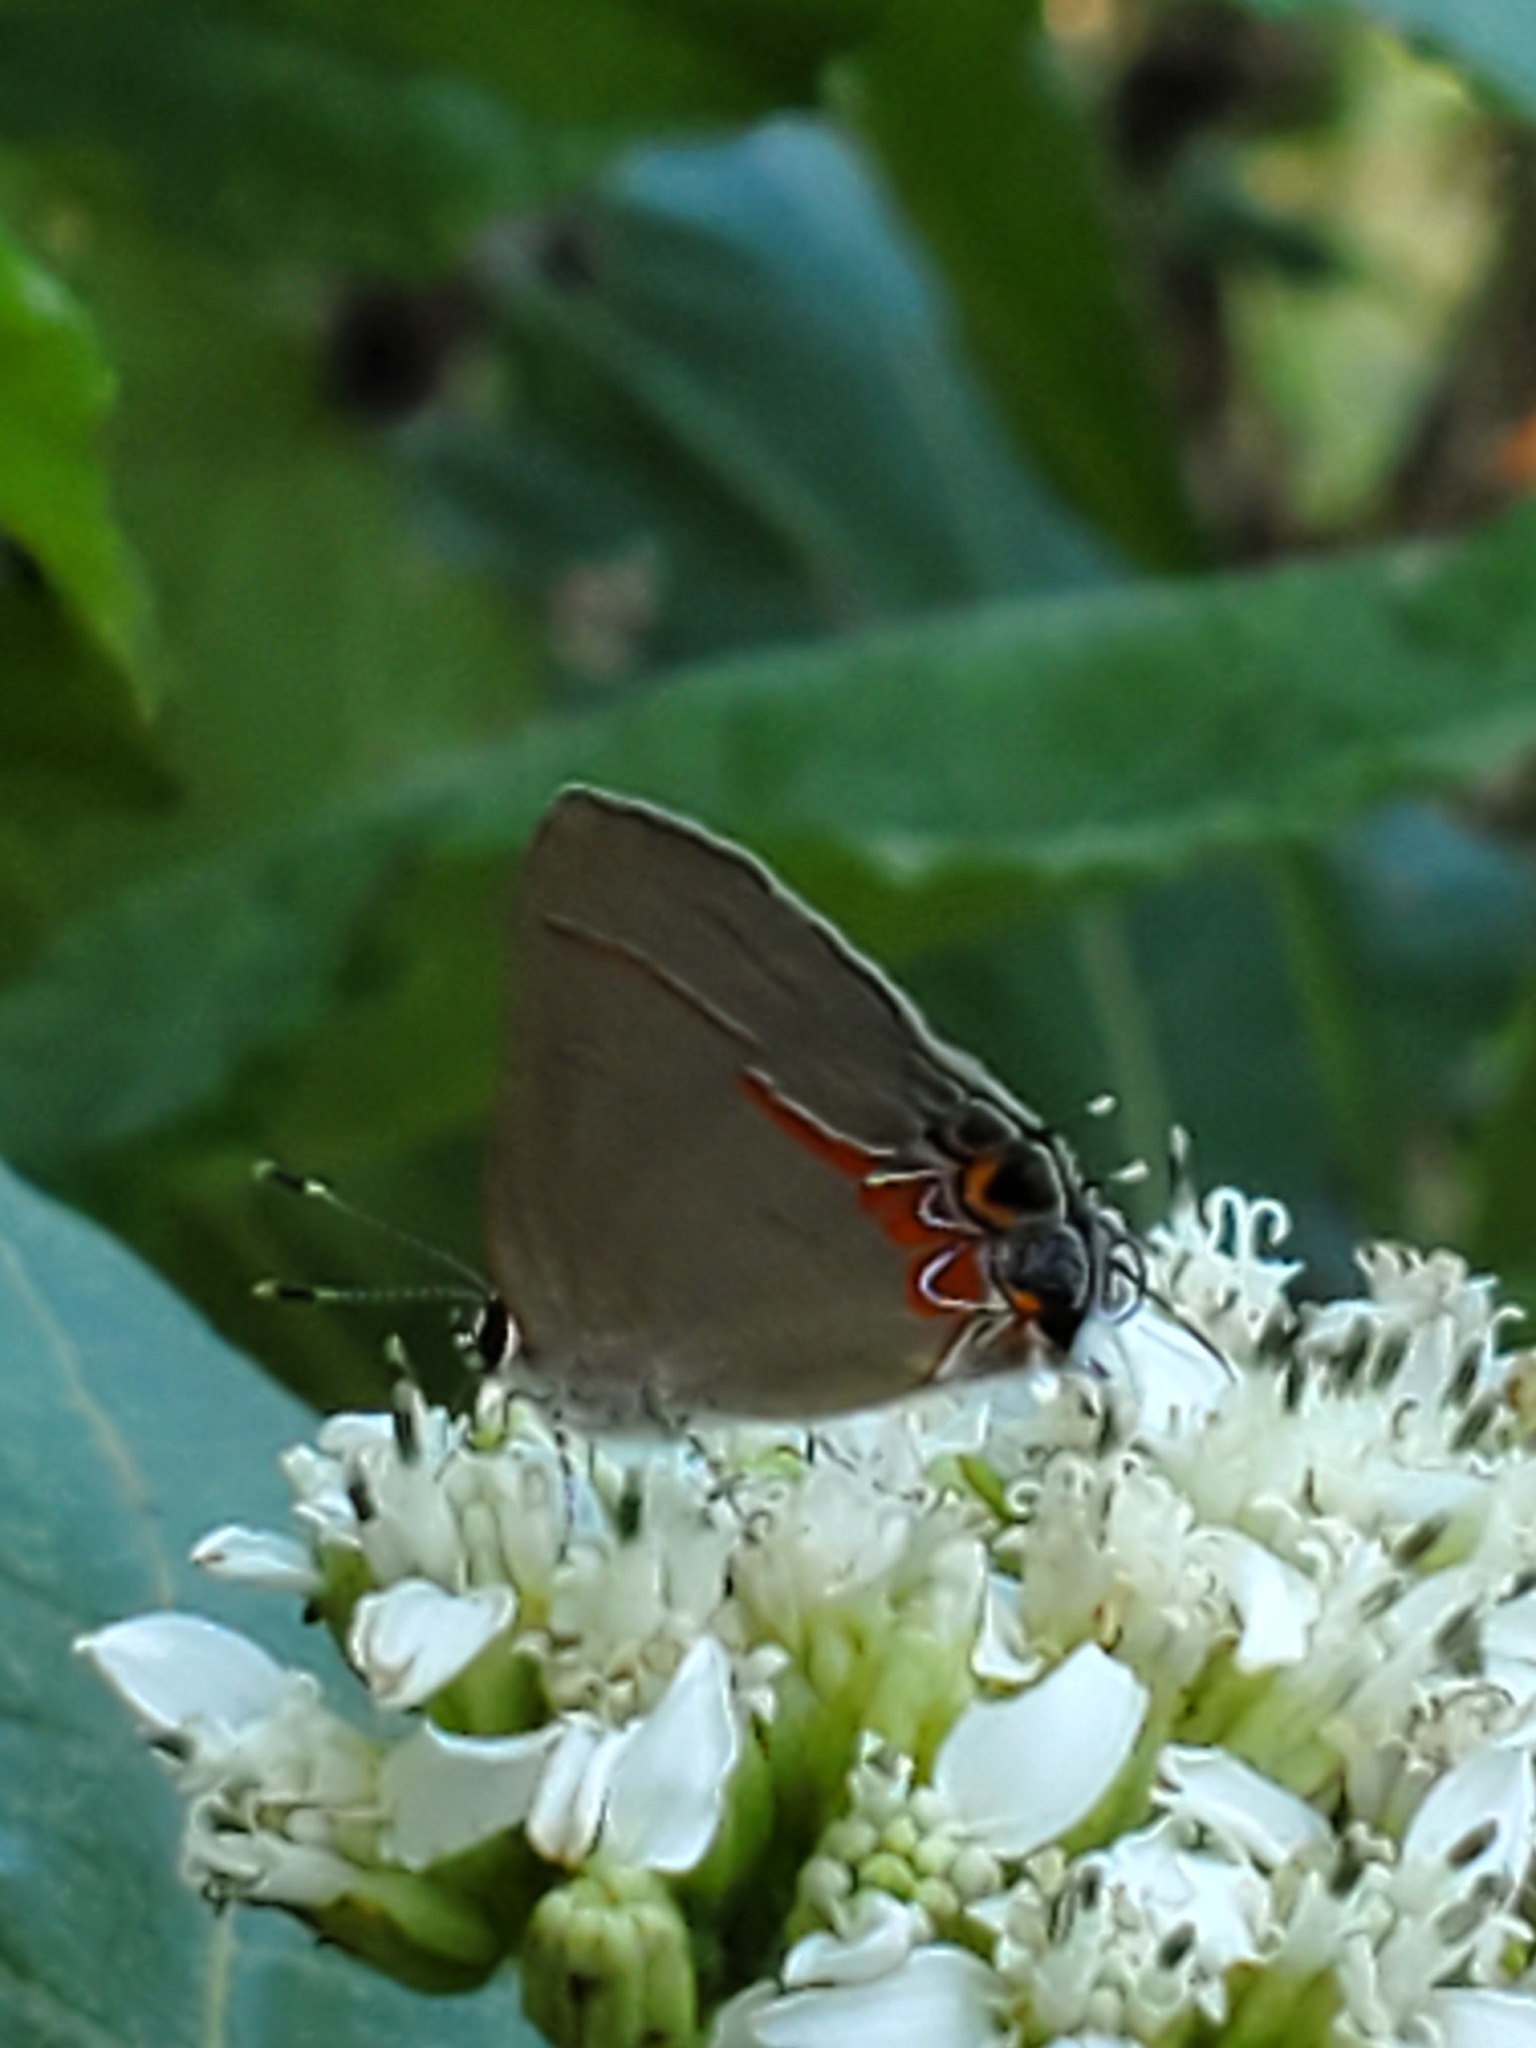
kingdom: Animalia
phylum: Arthropoda
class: Insecta
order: Lepidoptera
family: Lycaenidae
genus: Calycopis
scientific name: Calycopis isobeon
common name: Dusky-blue groundstreak
